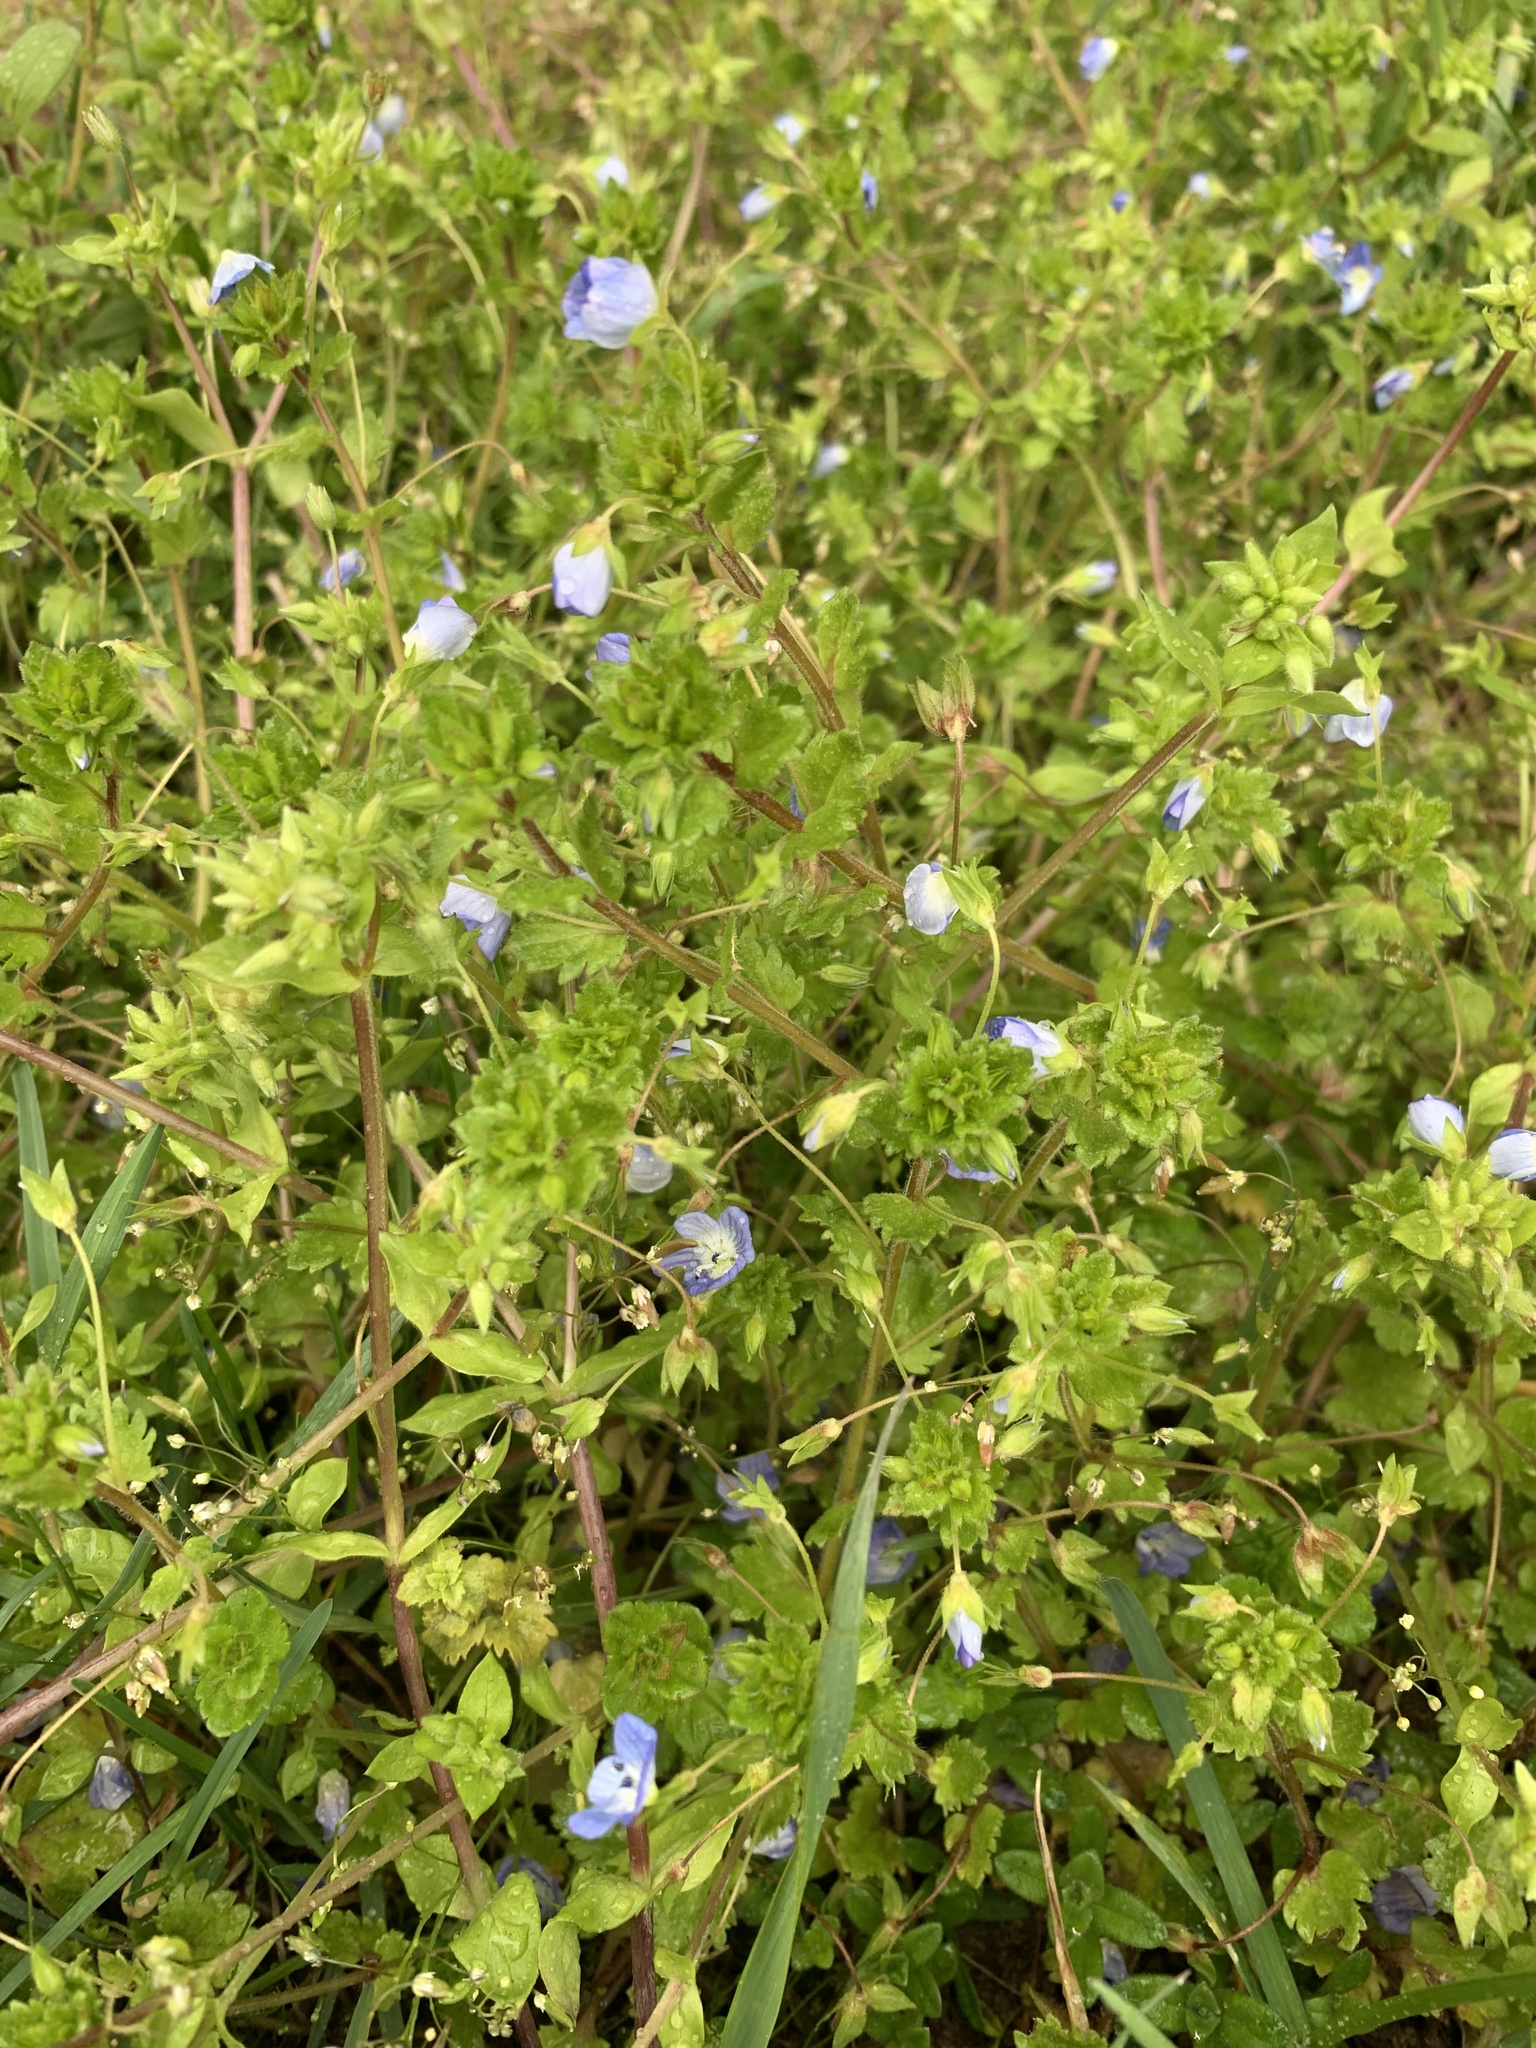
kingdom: Plantae
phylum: Tracheophyta
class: Magnoliopsida
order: Lamiales
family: Plantaginaceae
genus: Veronica
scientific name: Veronica persica
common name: Common field-speedwell
